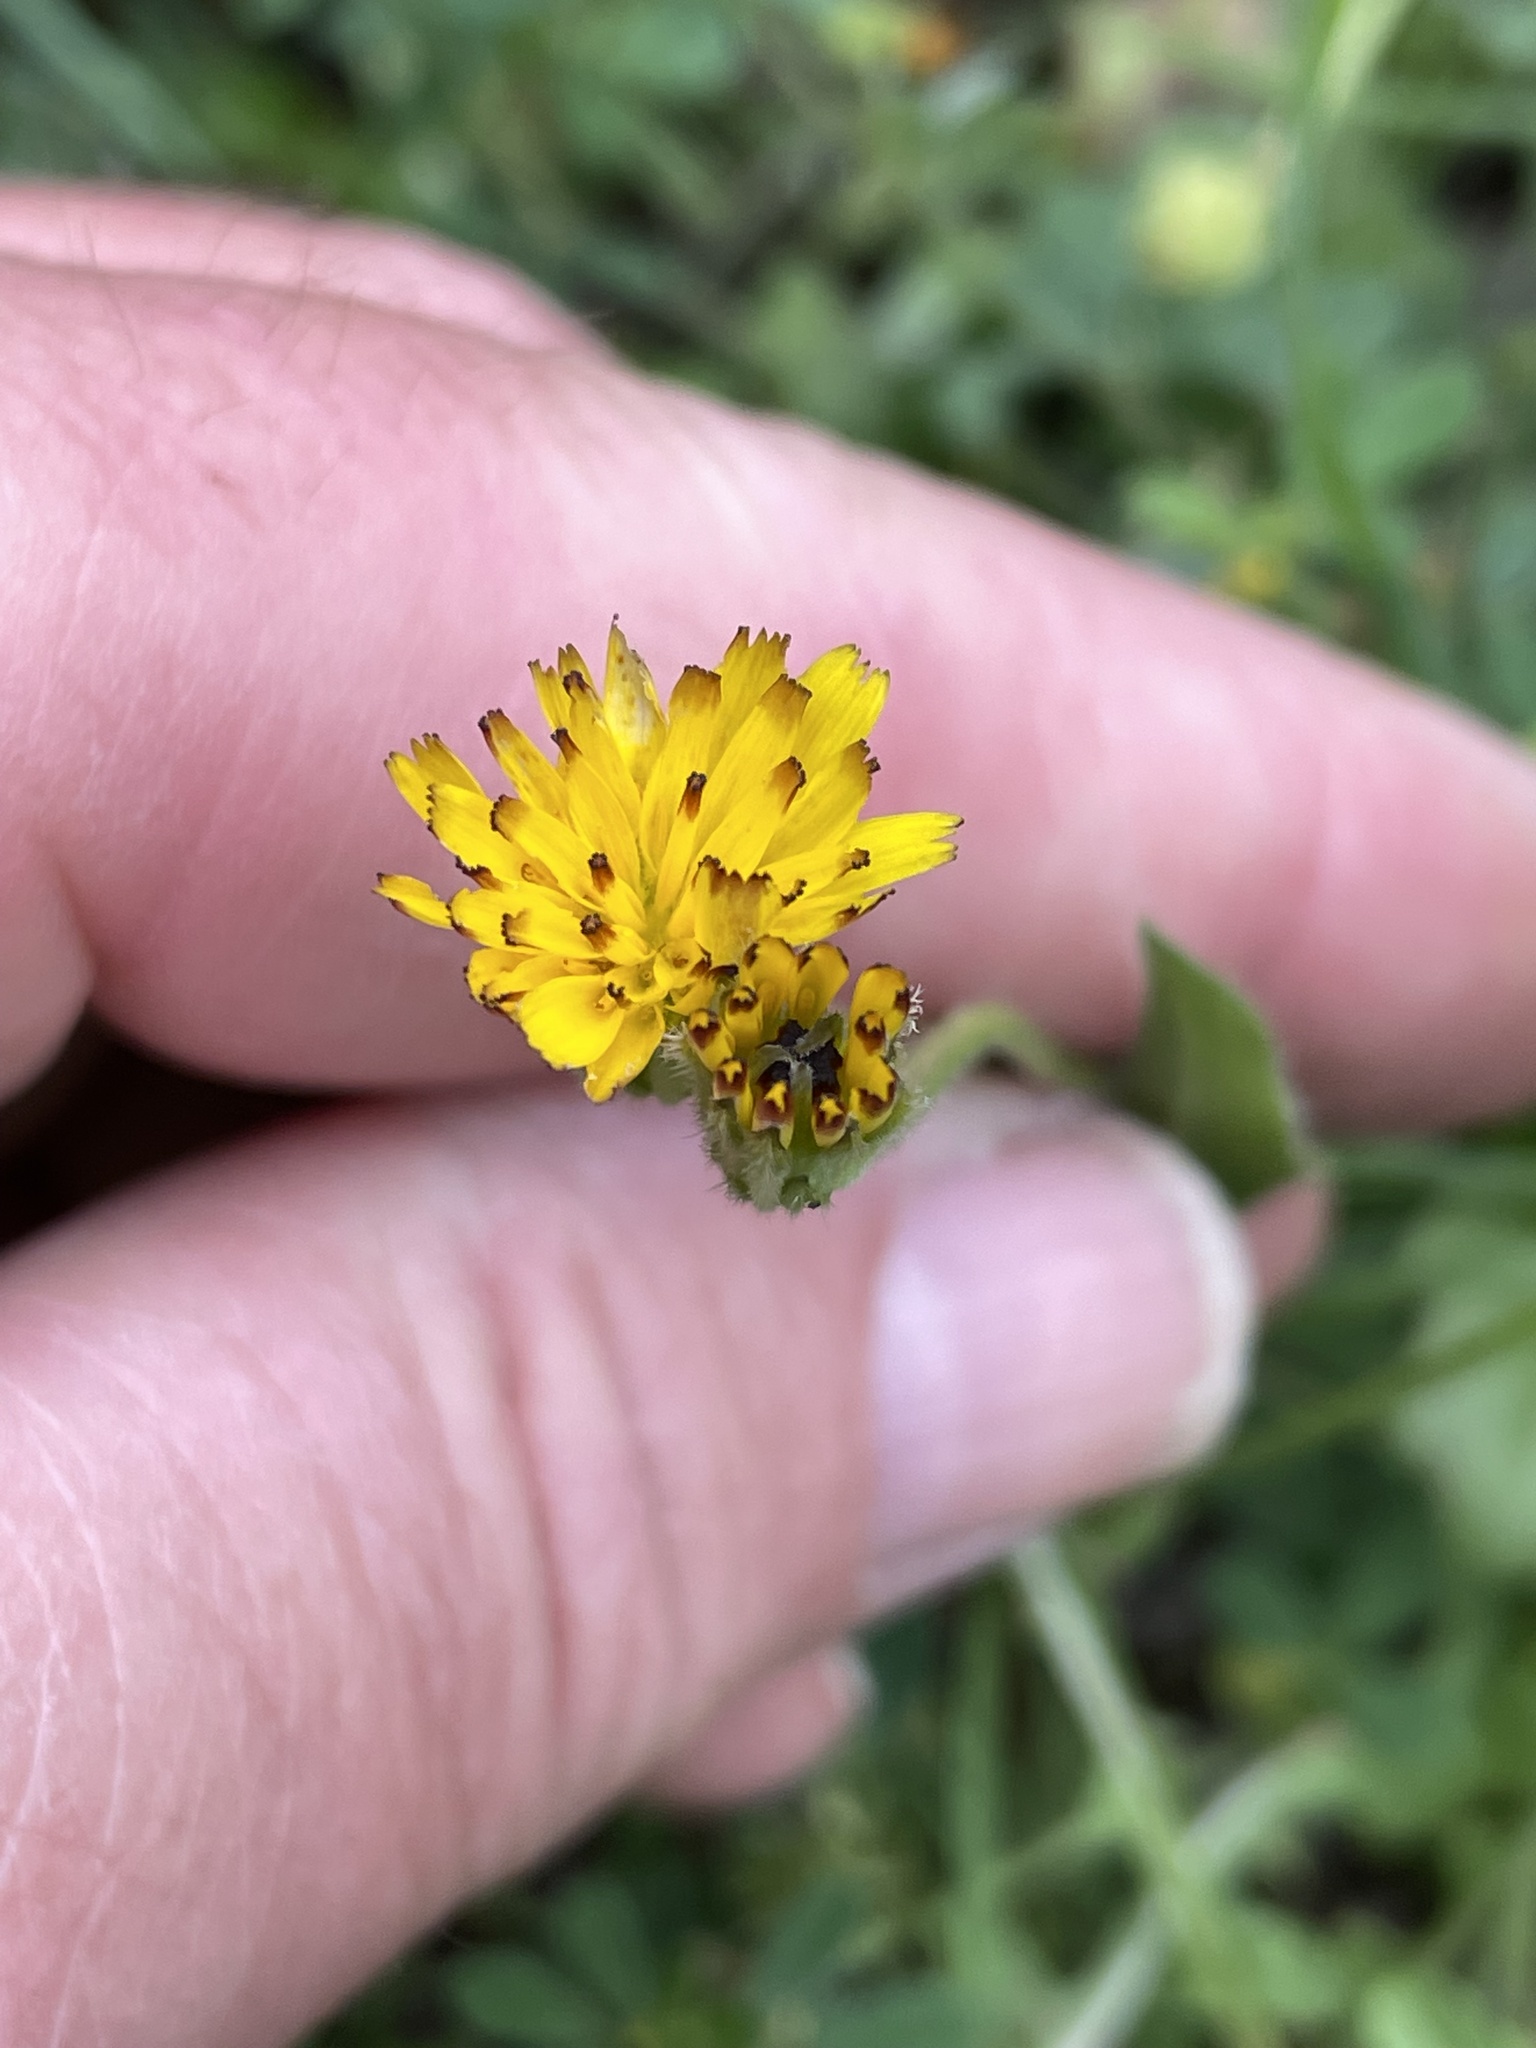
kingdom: Plantae
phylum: Tracheophyta
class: Magnoliopsida
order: Asterales
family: Asteraceae
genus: Hedypnois
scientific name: Hedypnois rhagadioloides
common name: Cretan weed
